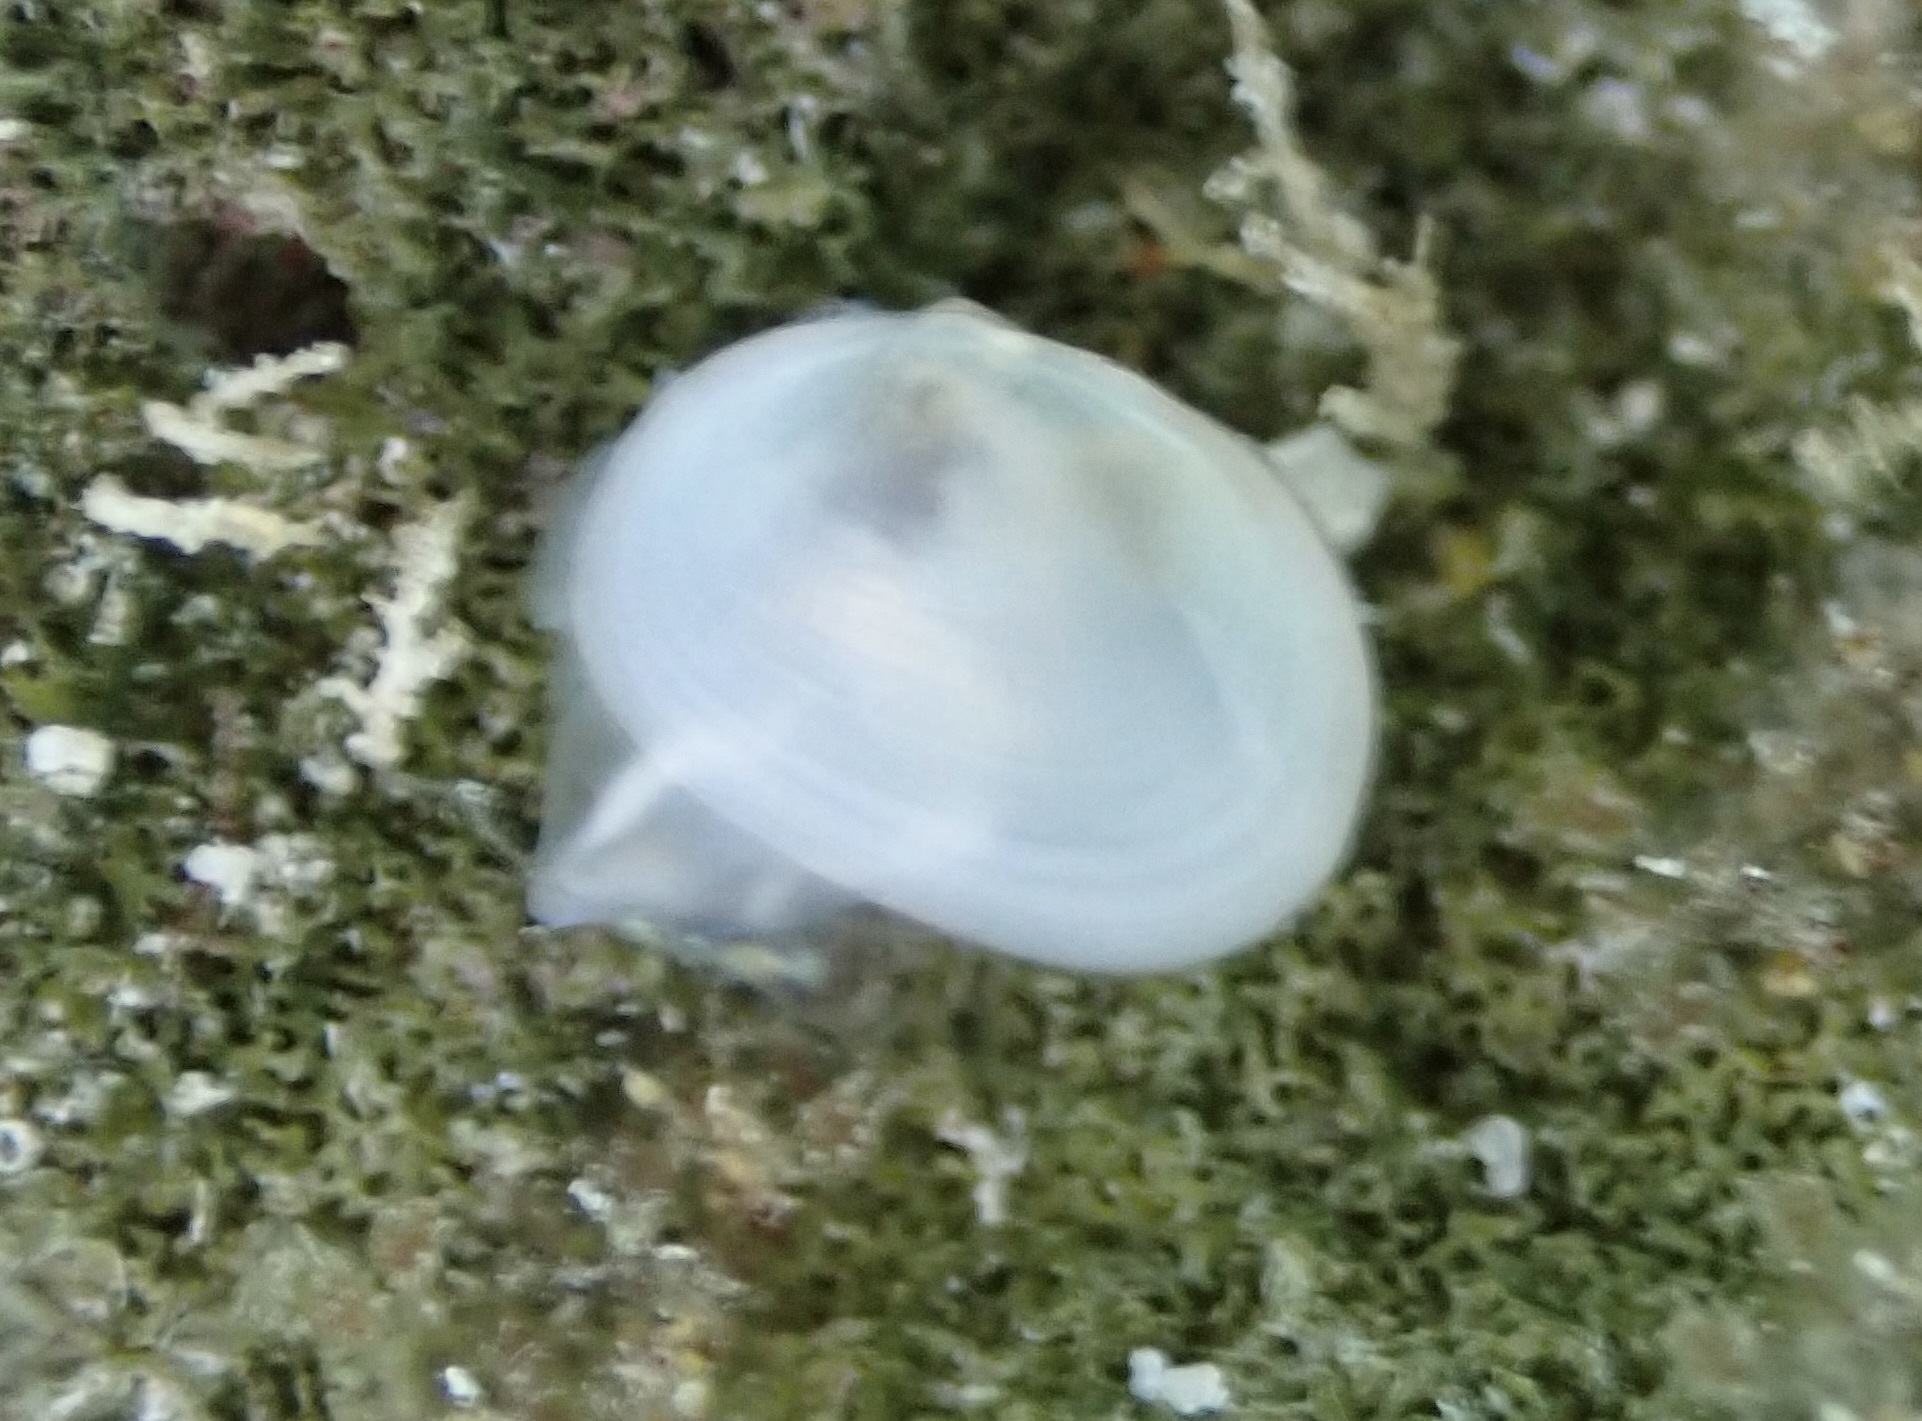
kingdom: Animalia
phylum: Mollusca
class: Bivalvia
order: Galeommatida
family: Galeommatidae
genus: Scintilla
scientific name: Scintilla hiloa
